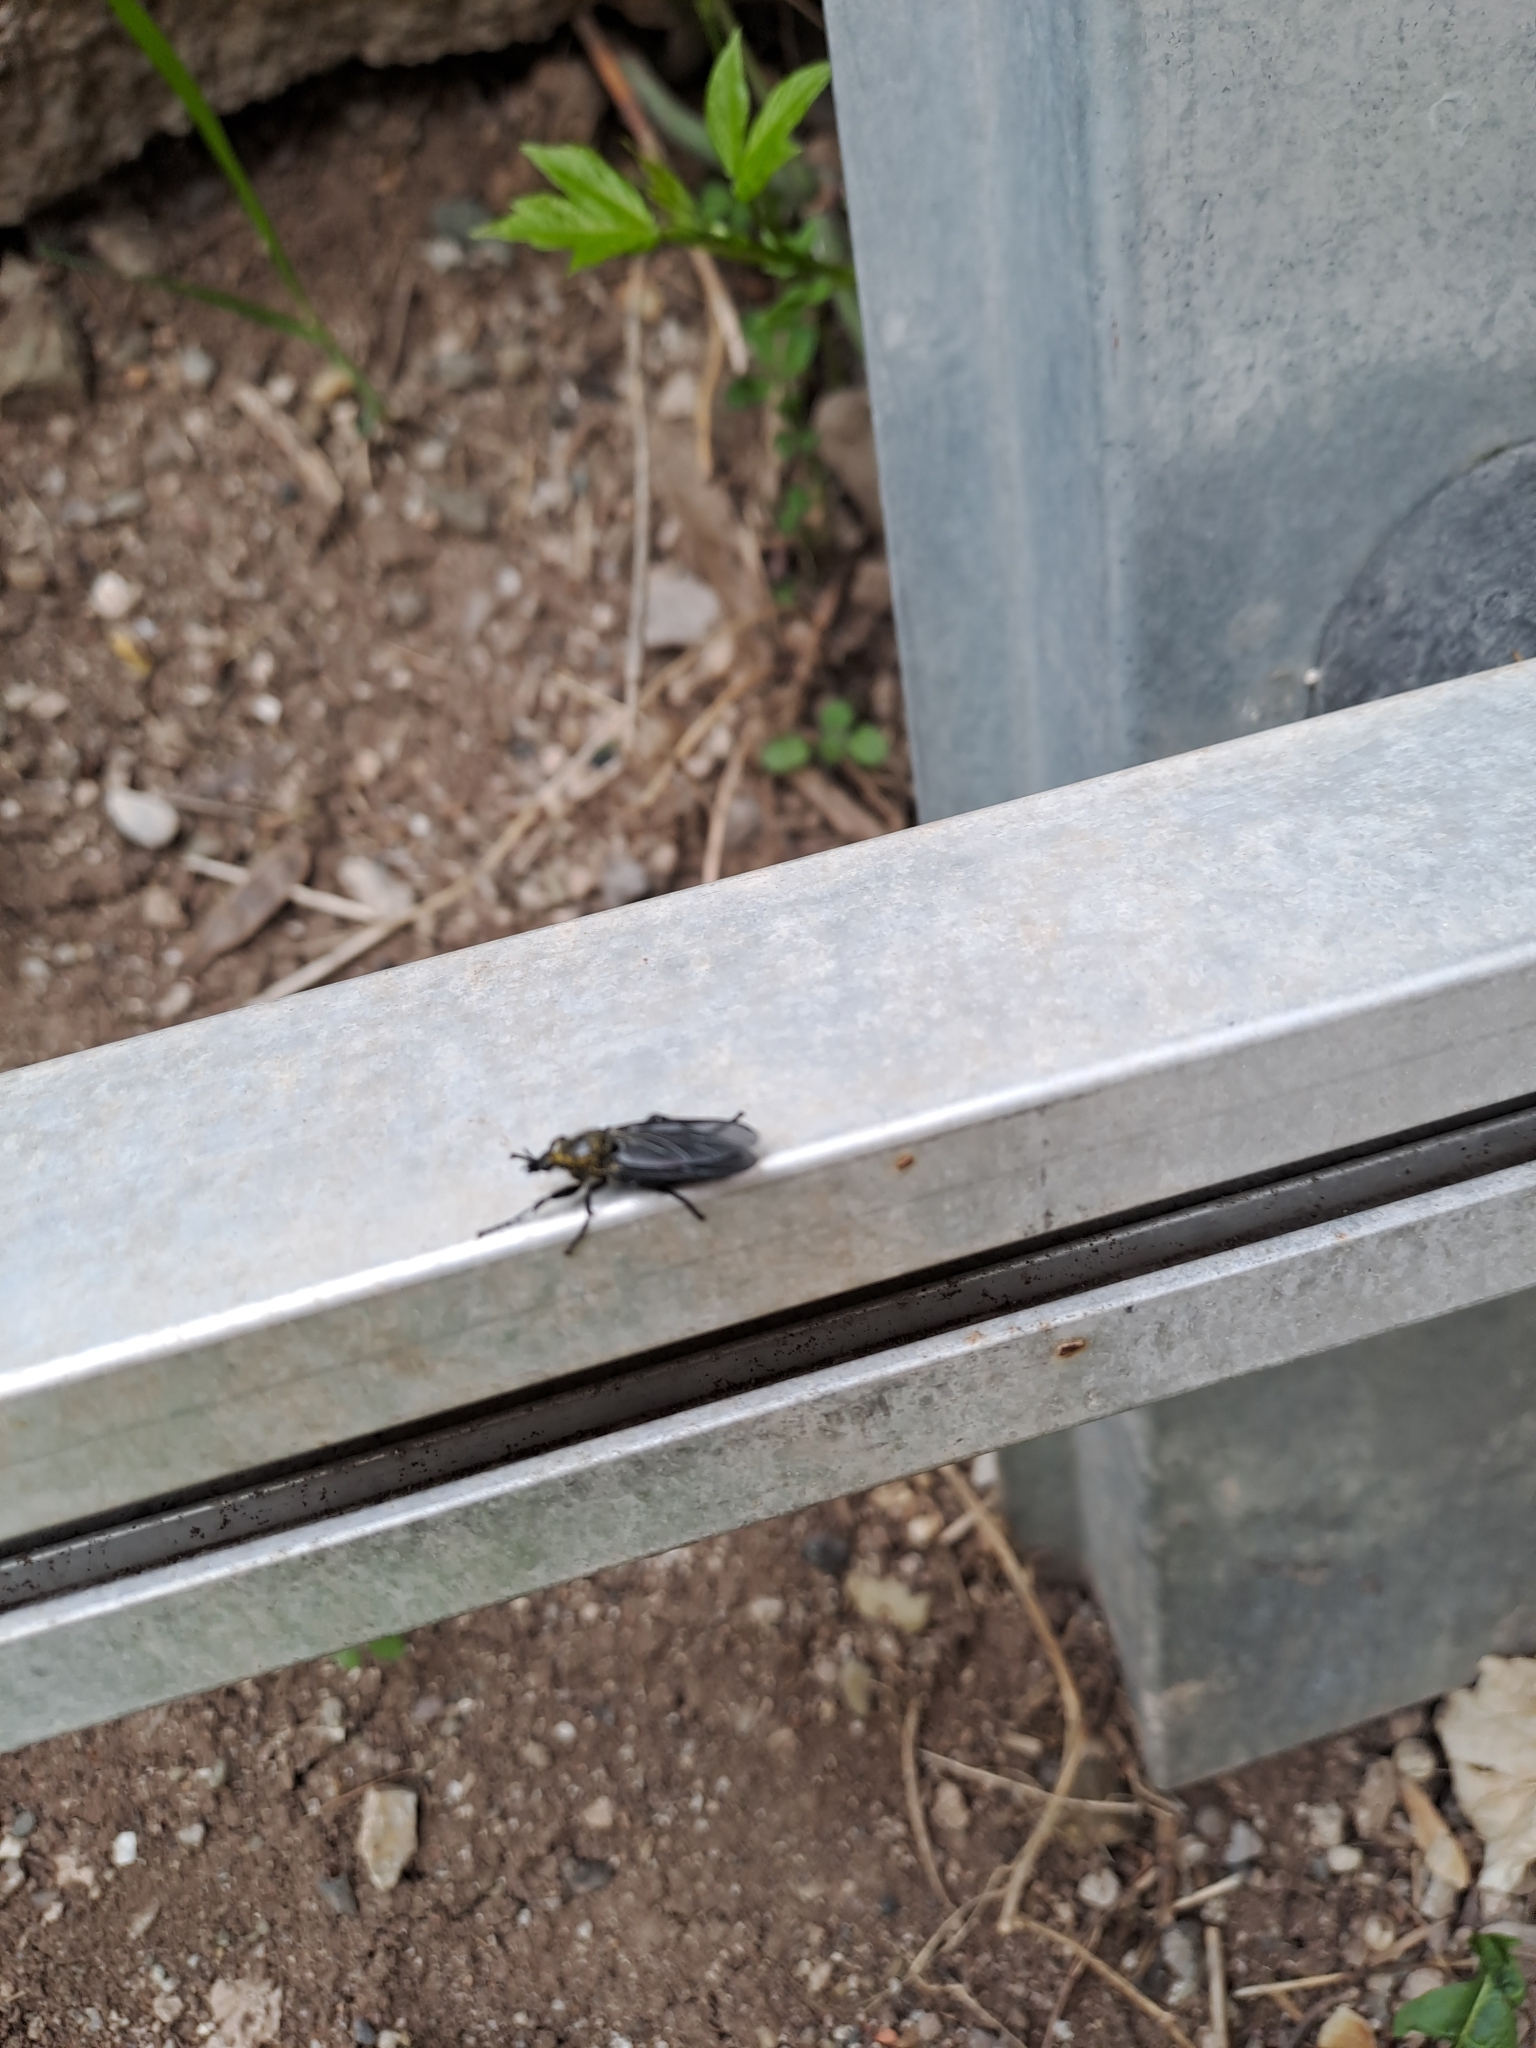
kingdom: Animalia
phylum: Arthropoda
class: Insecta
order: Diptera
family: Bibionidae
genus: Bibio
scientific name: Bibio marci
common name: St marks fly
